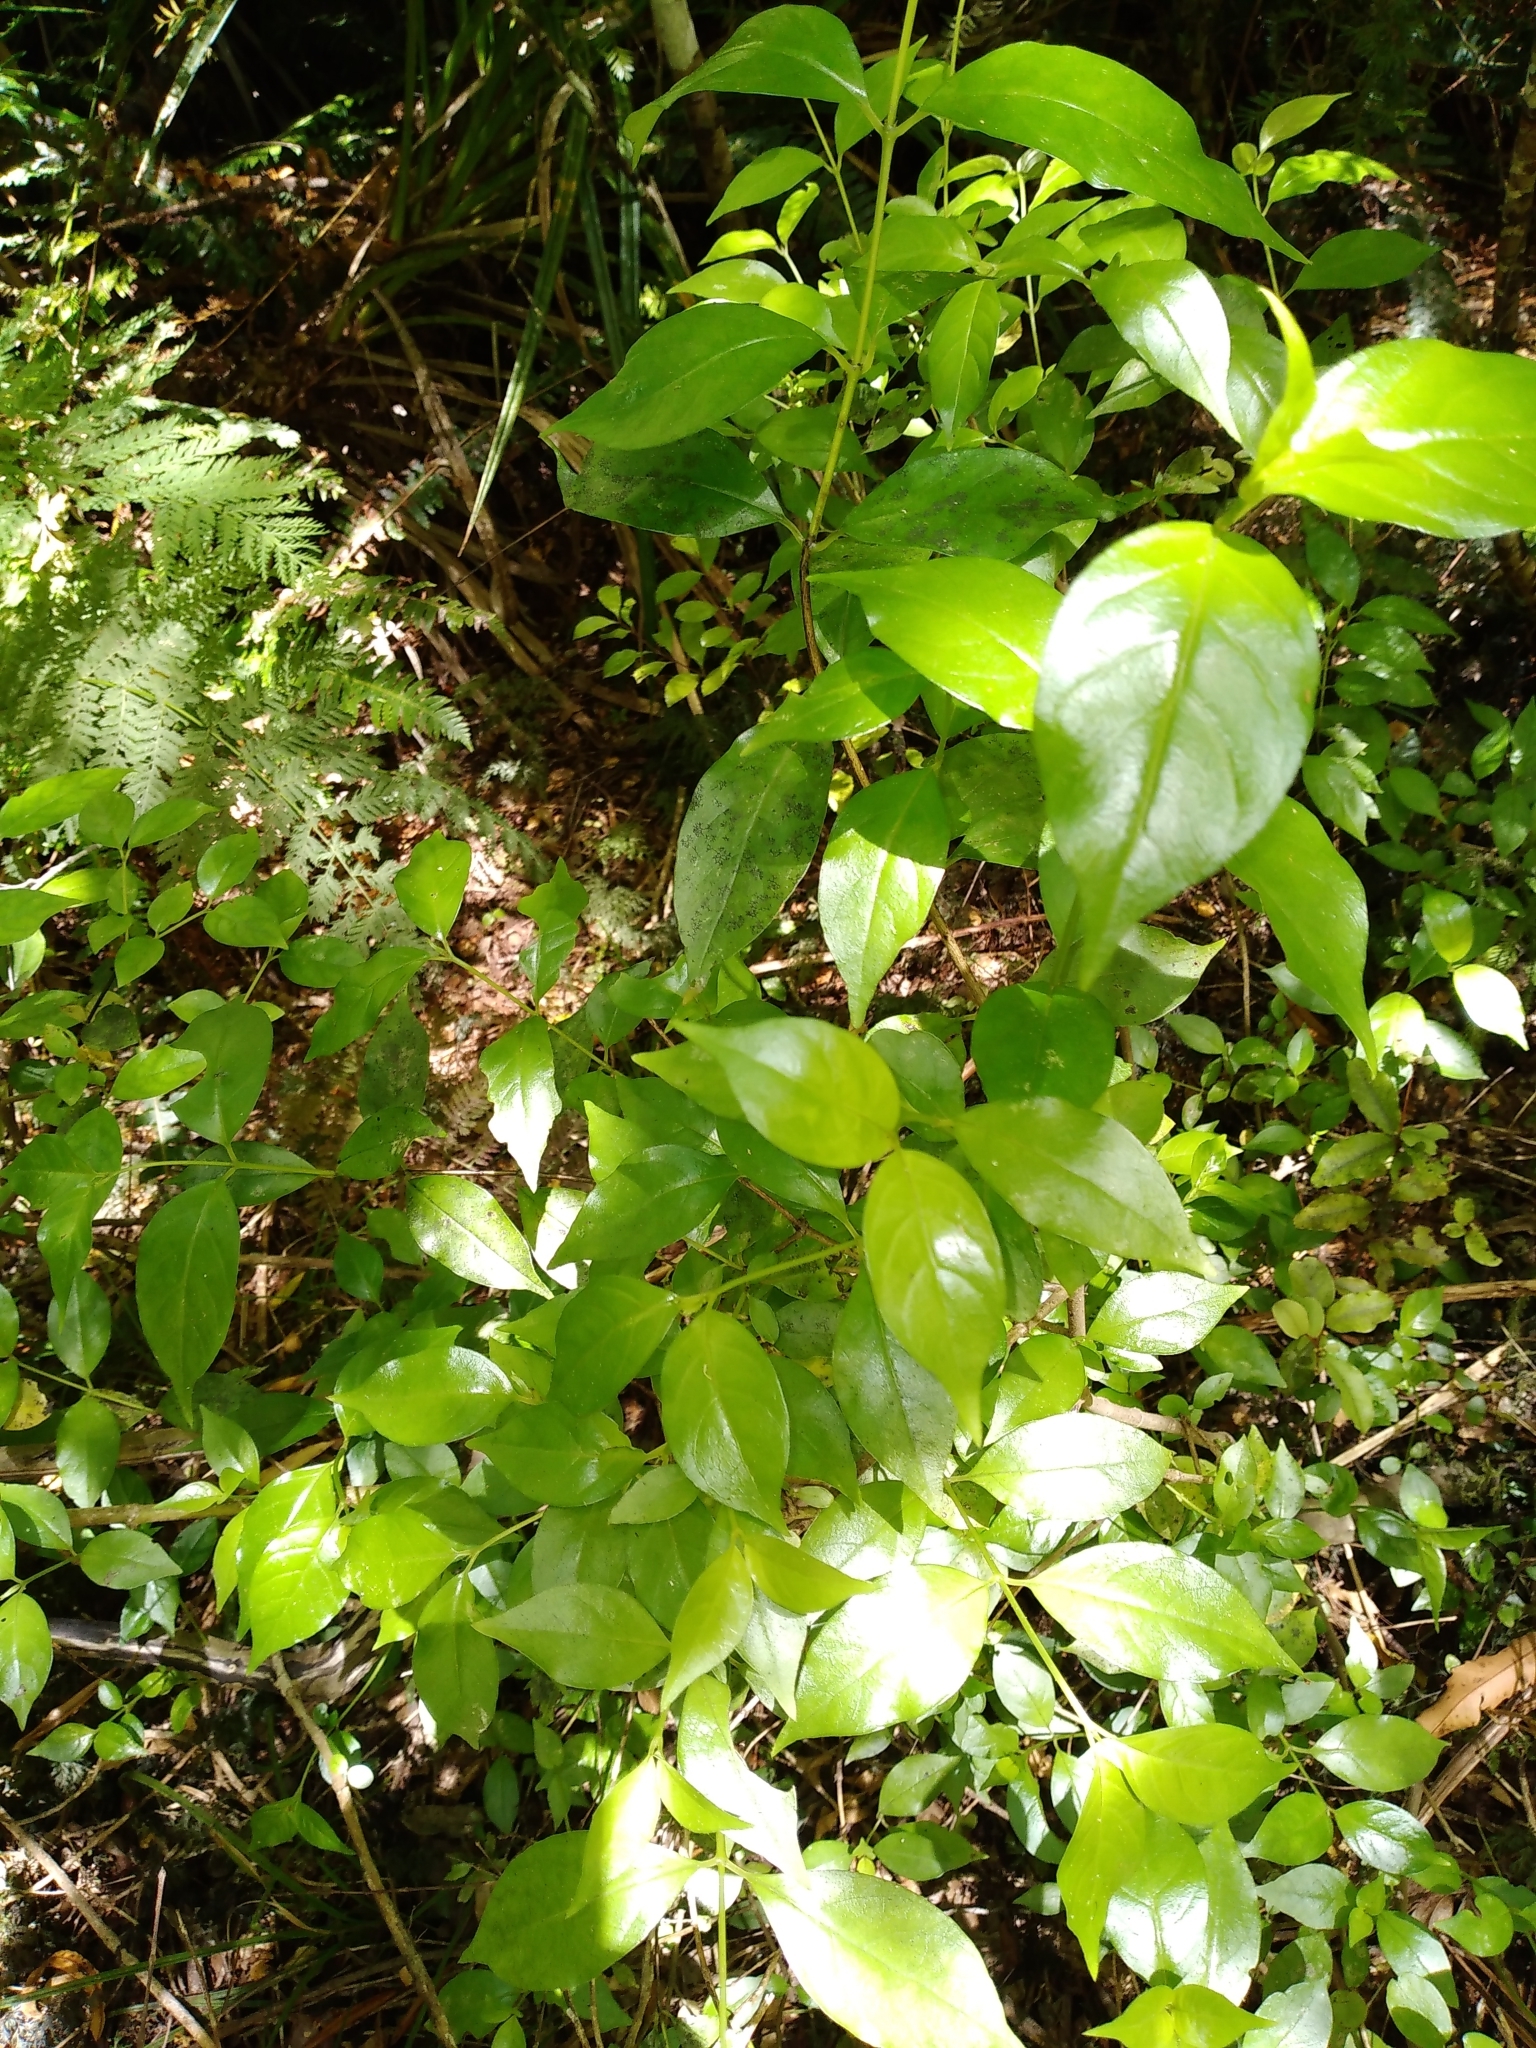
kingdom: Plantae
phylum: Tracheophyta
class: Magnoliopsida
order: Gentianales
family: Loganiaceae
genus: Geniostoma
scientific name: Geniostoma ligustrifolium
